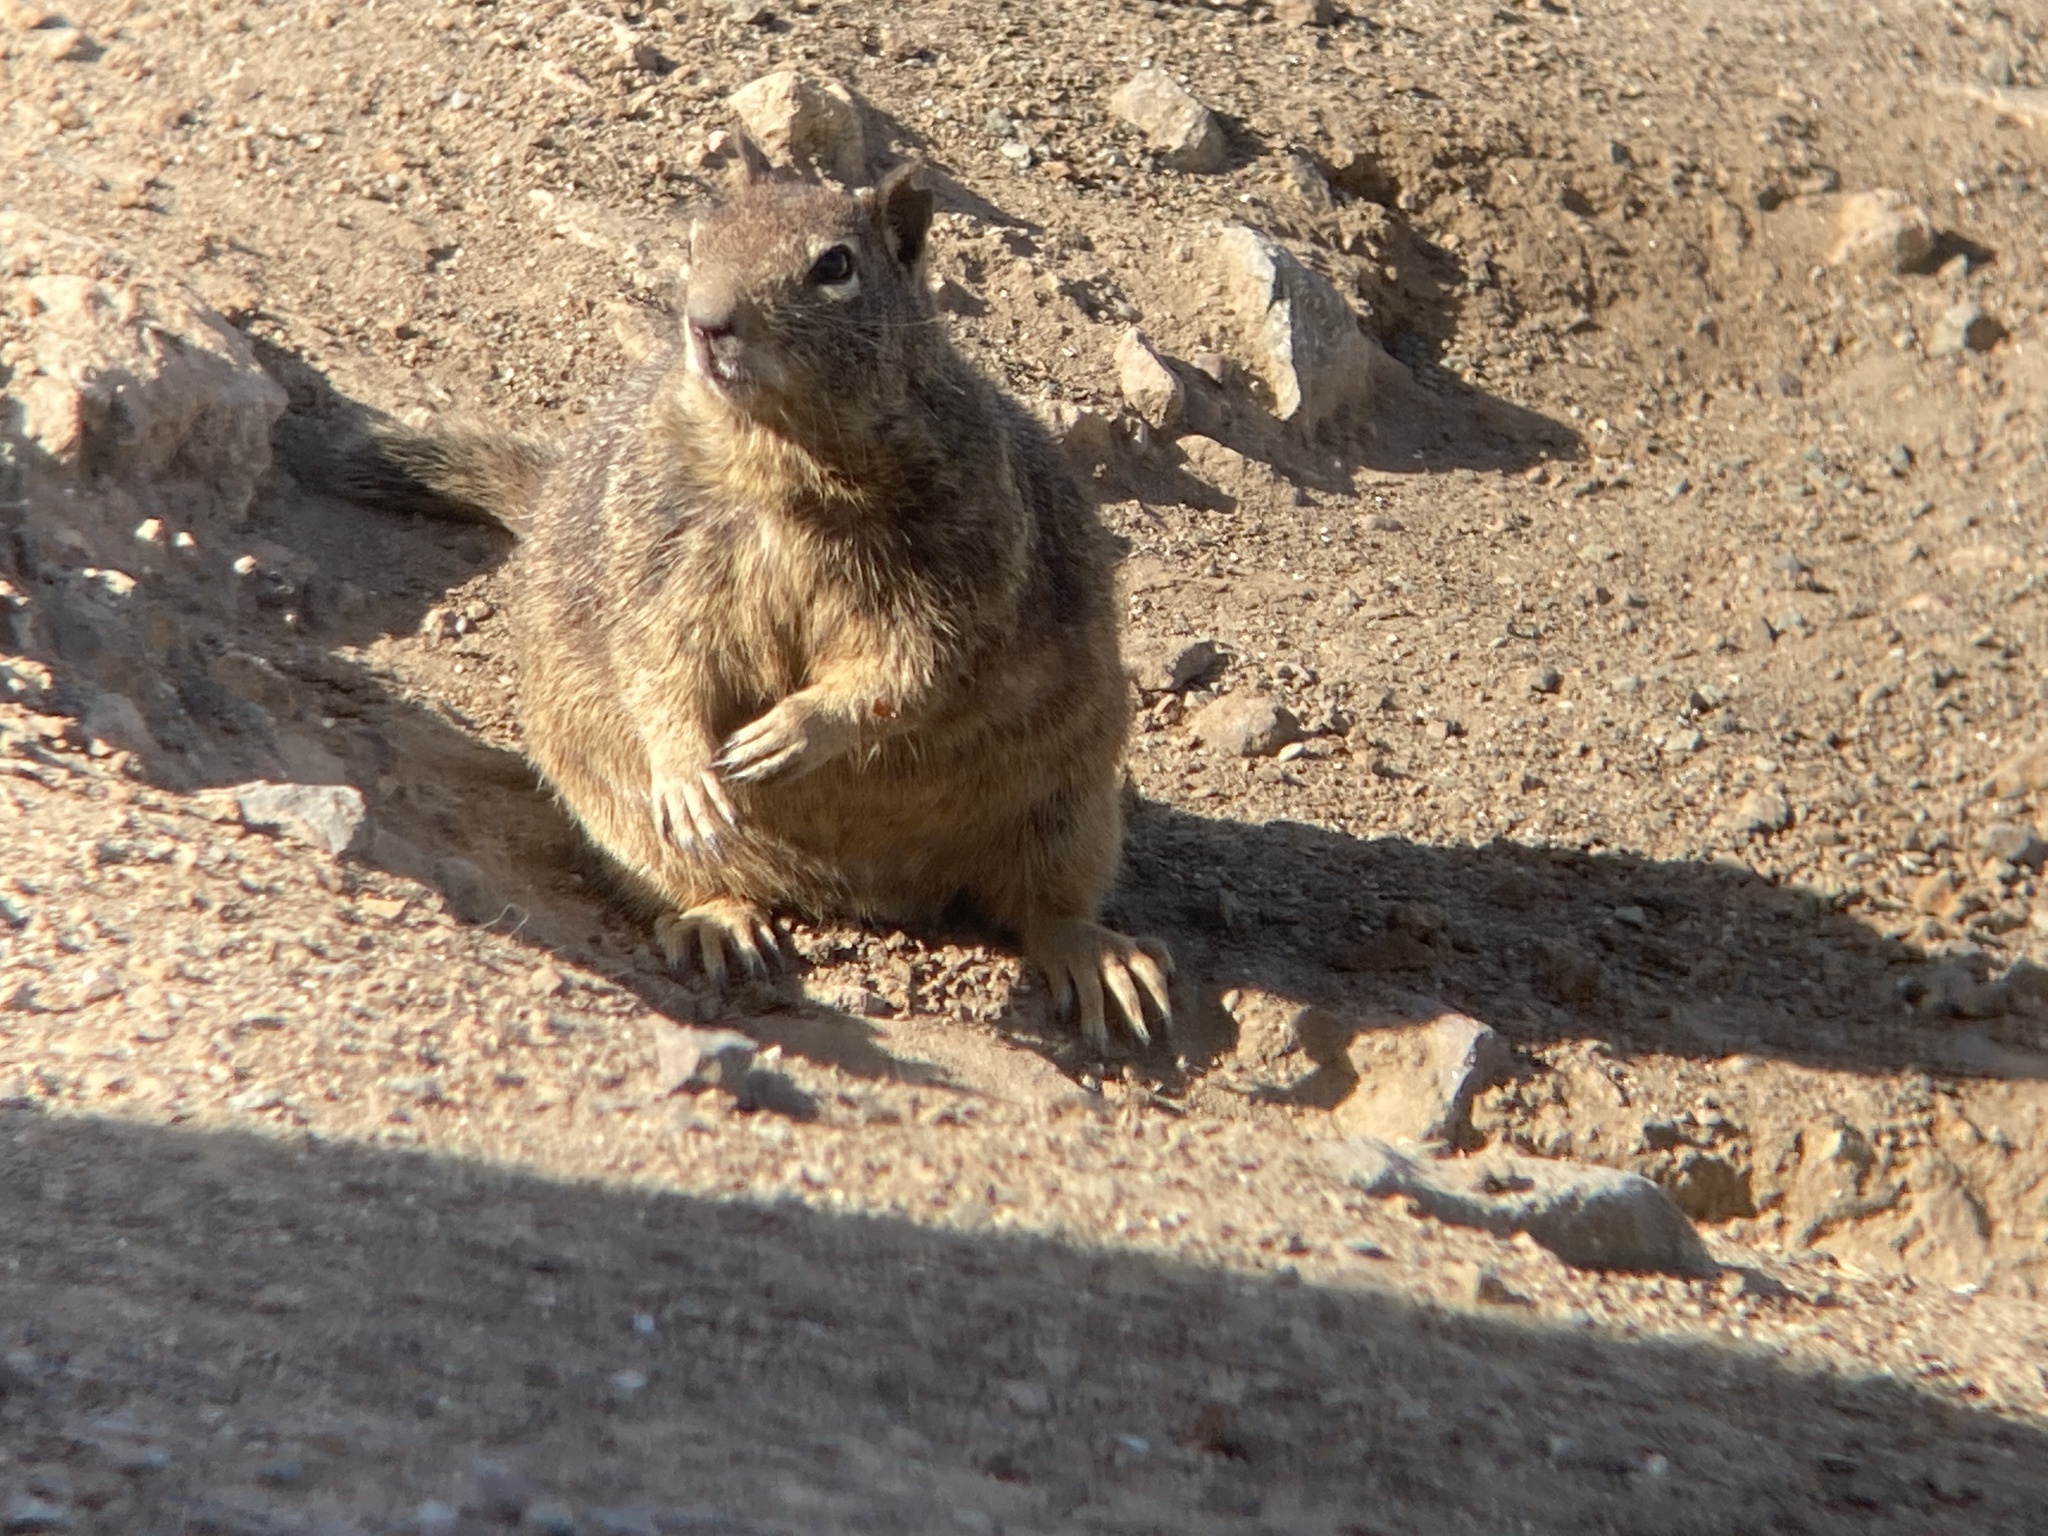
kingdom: Animalia
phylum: Chordata
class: Mammalia
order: Rodentia
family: Sciuridae
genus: Otospermophilus
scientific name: Otospermophilus beecheyi
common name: California ground squirrel
